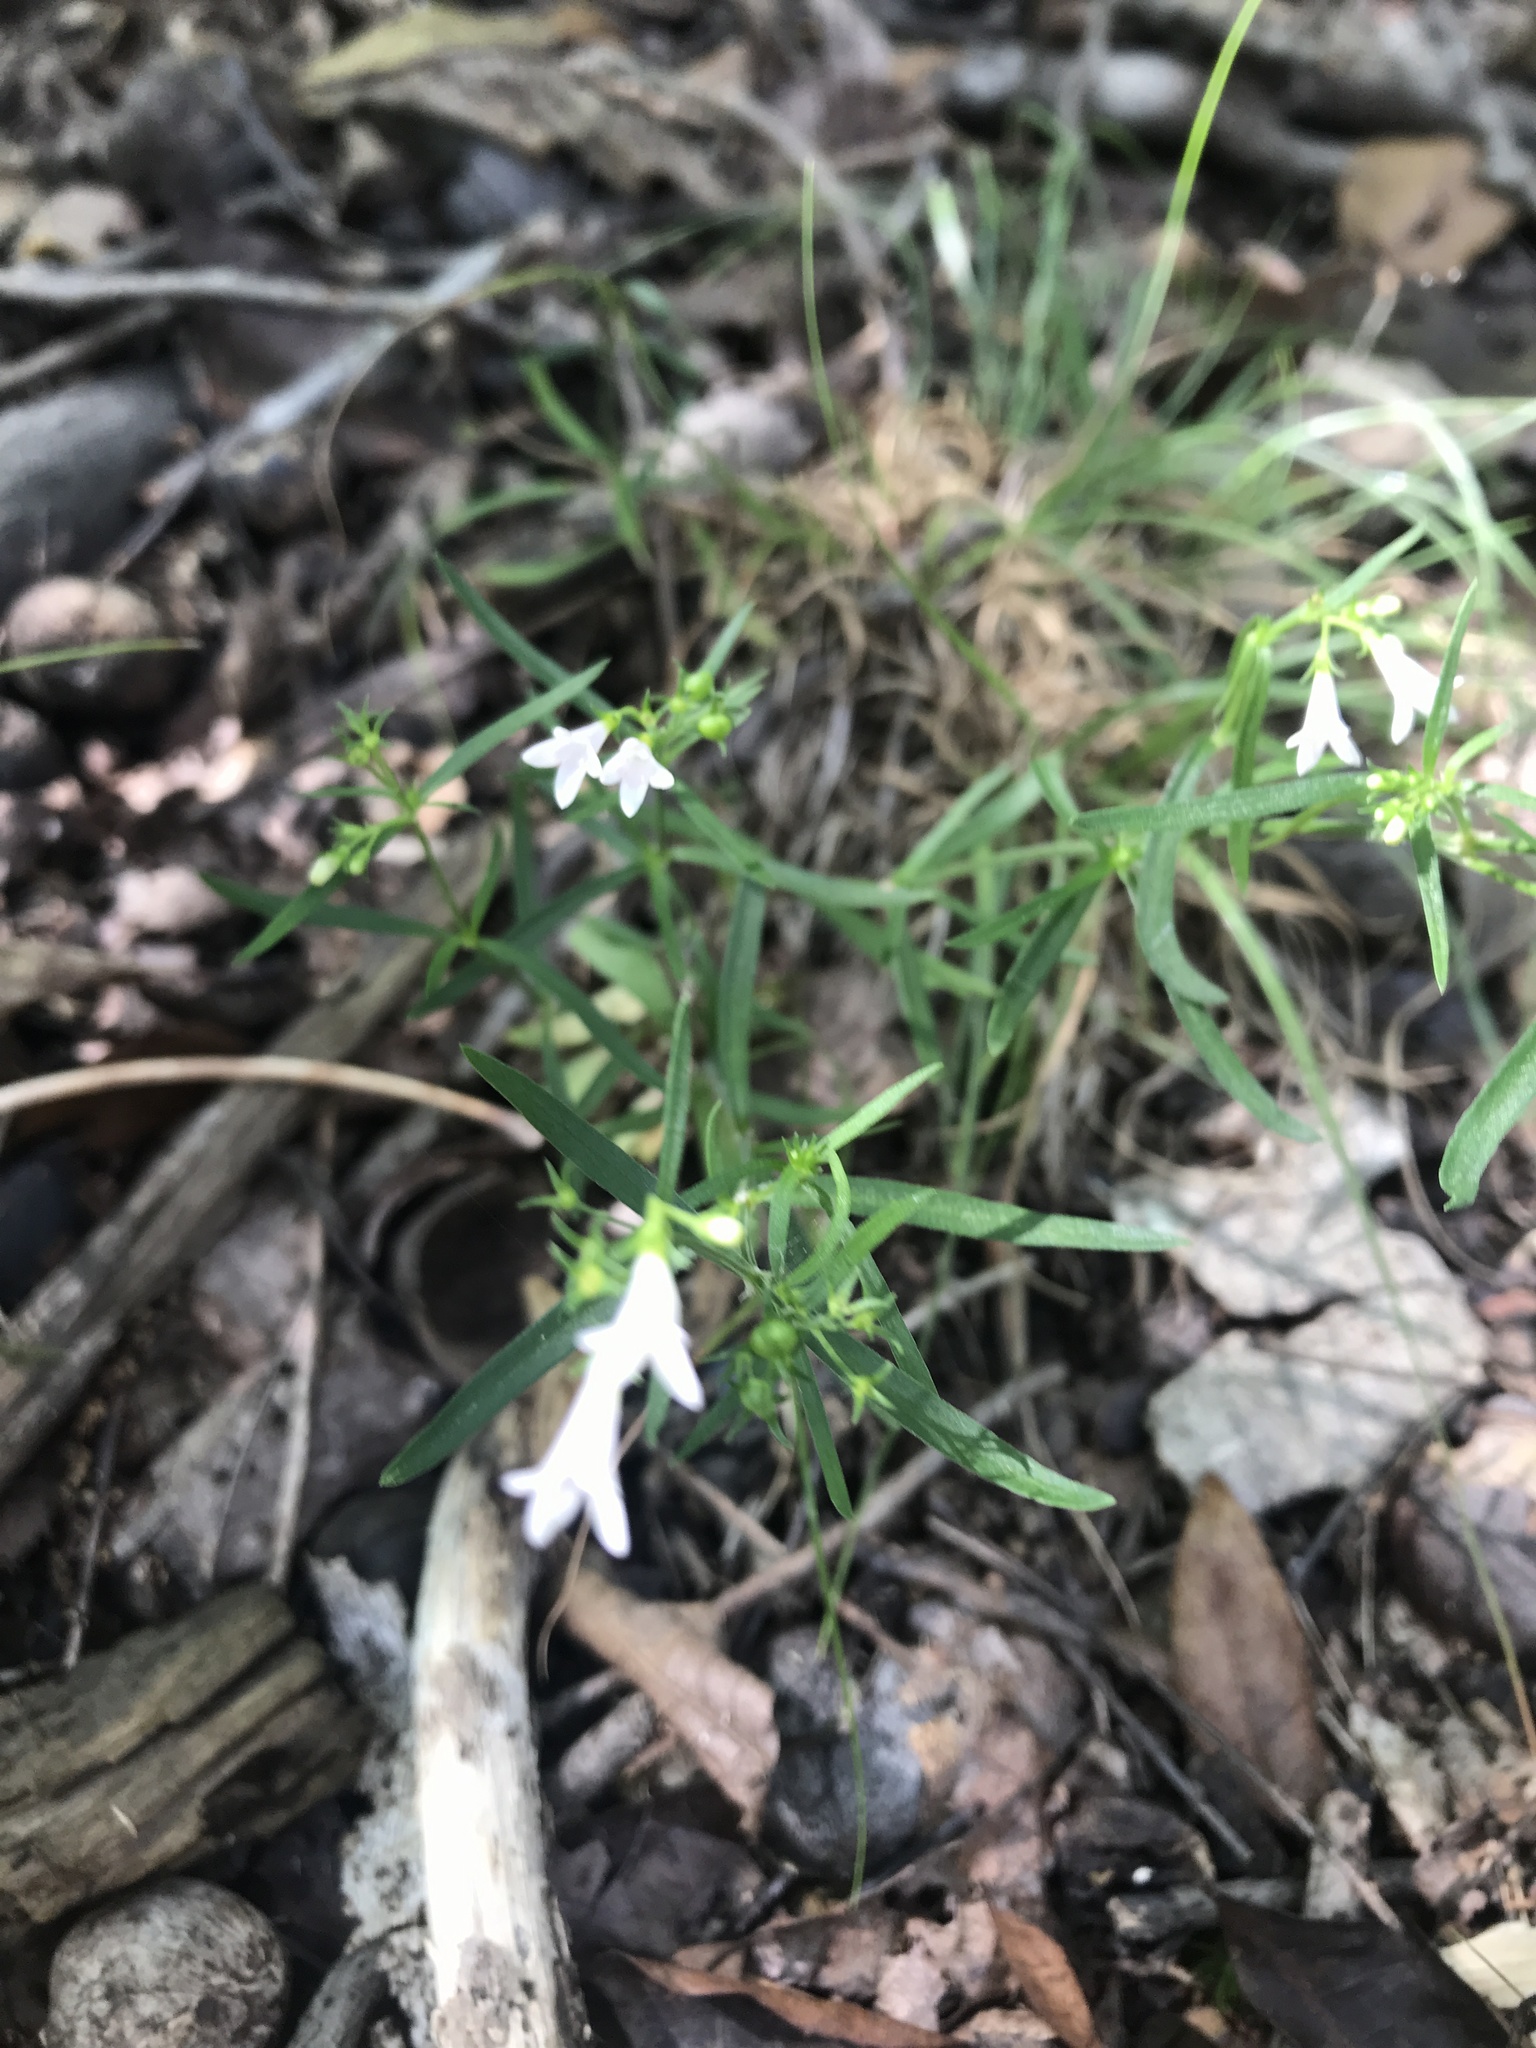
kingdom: Plantae
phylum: Tracheophyta
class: Magnoliopsida
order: Gentianales
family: Rubiaceae
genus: Houstonia
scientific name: Houstonia longifolia
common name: Long-leaved bluets
